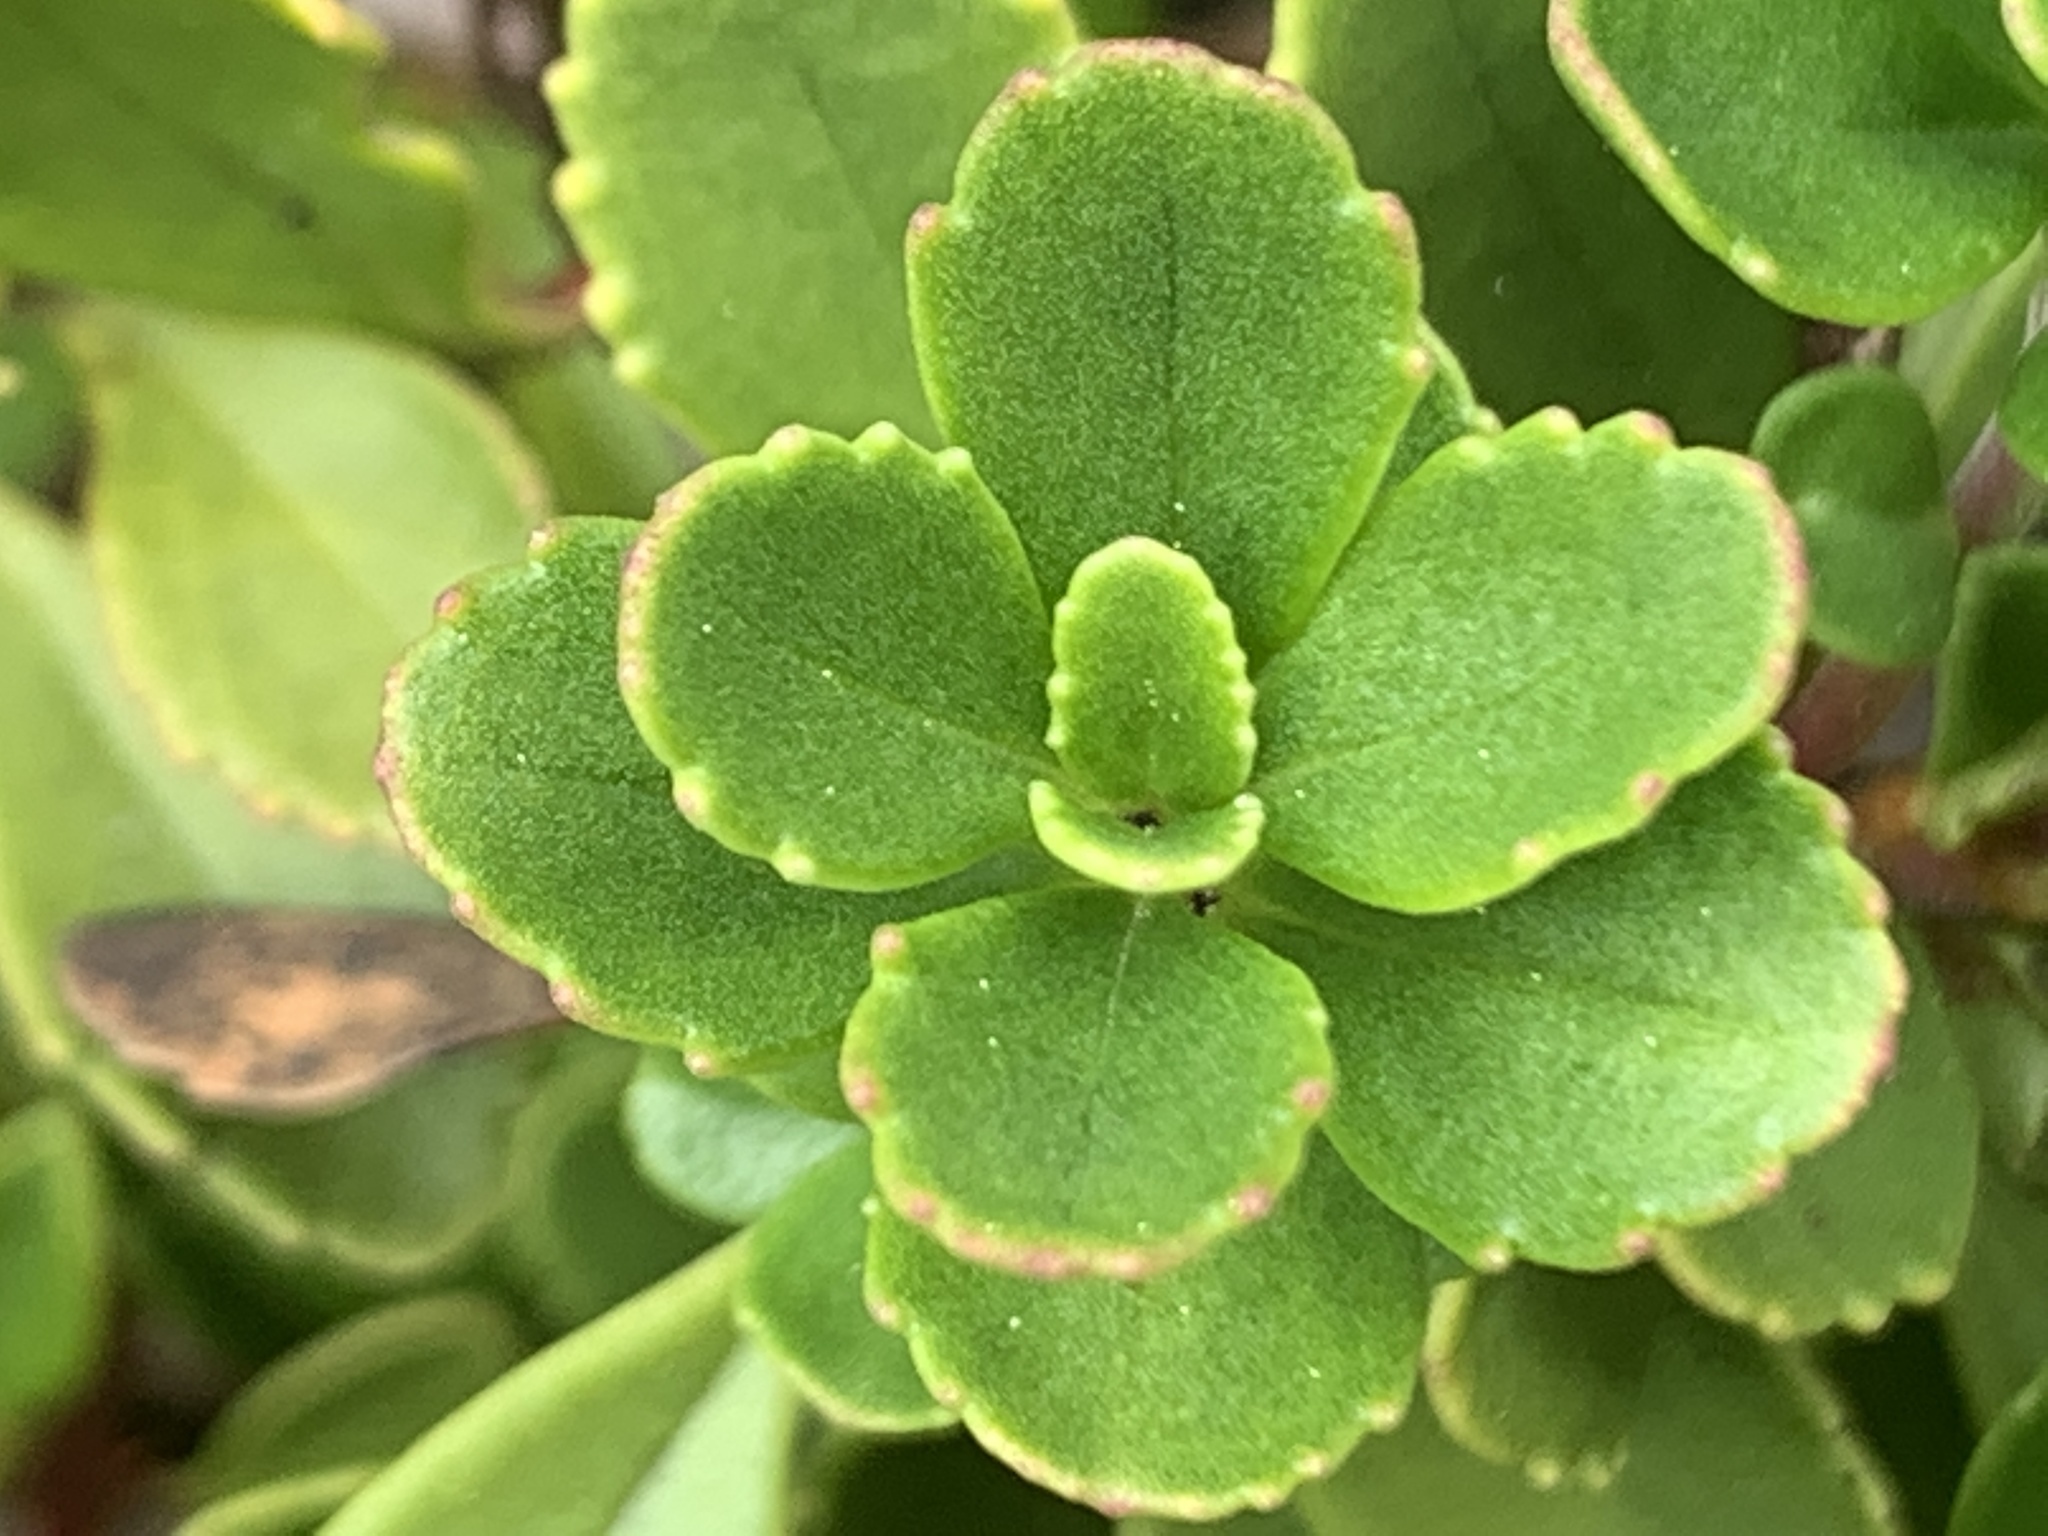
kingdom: Plantae
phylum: Tracheophyta
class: Magnoliopsida
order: Lamiales
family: Plantaginaceae
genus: Penstemon
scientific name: Penstemon davidsonii
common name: Davidson's penstemon
